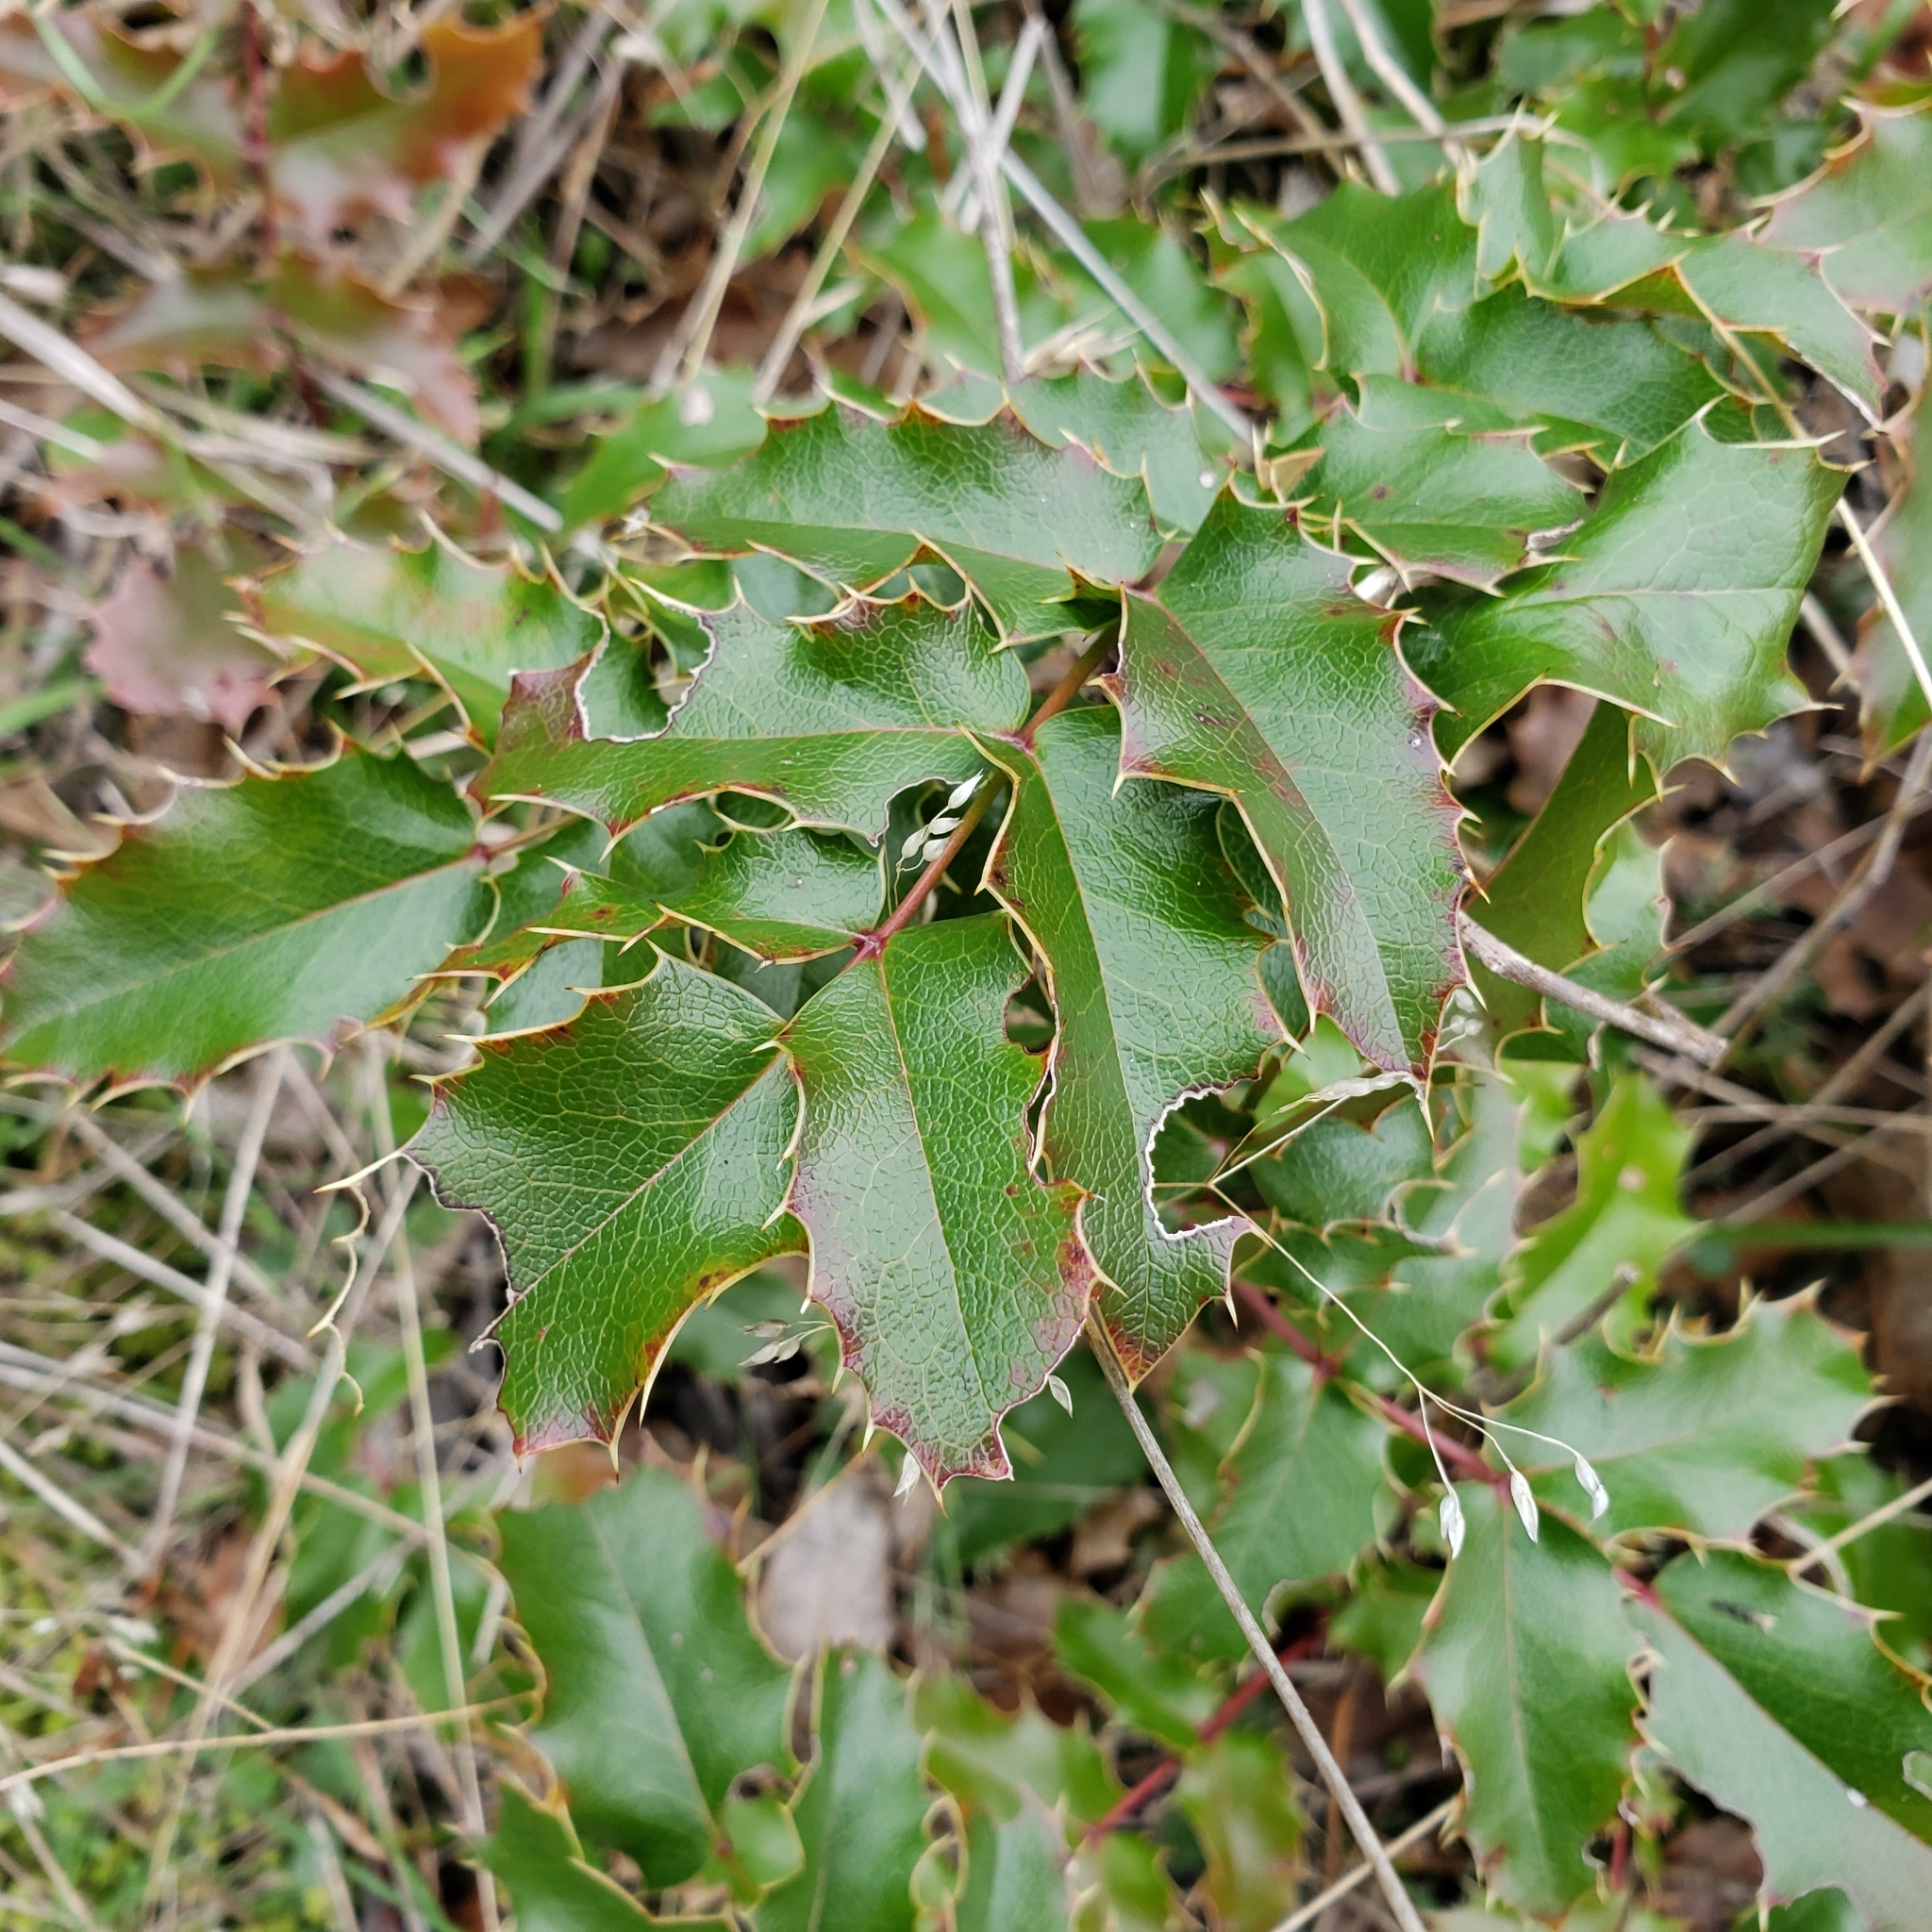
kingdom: Plantae
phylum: Tracheophyta
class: Magnoliopsida
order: Ranunculales
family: Berberidaceae
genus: Mahonia
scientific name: Mahonia aquifolium
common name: Oregon-grape
